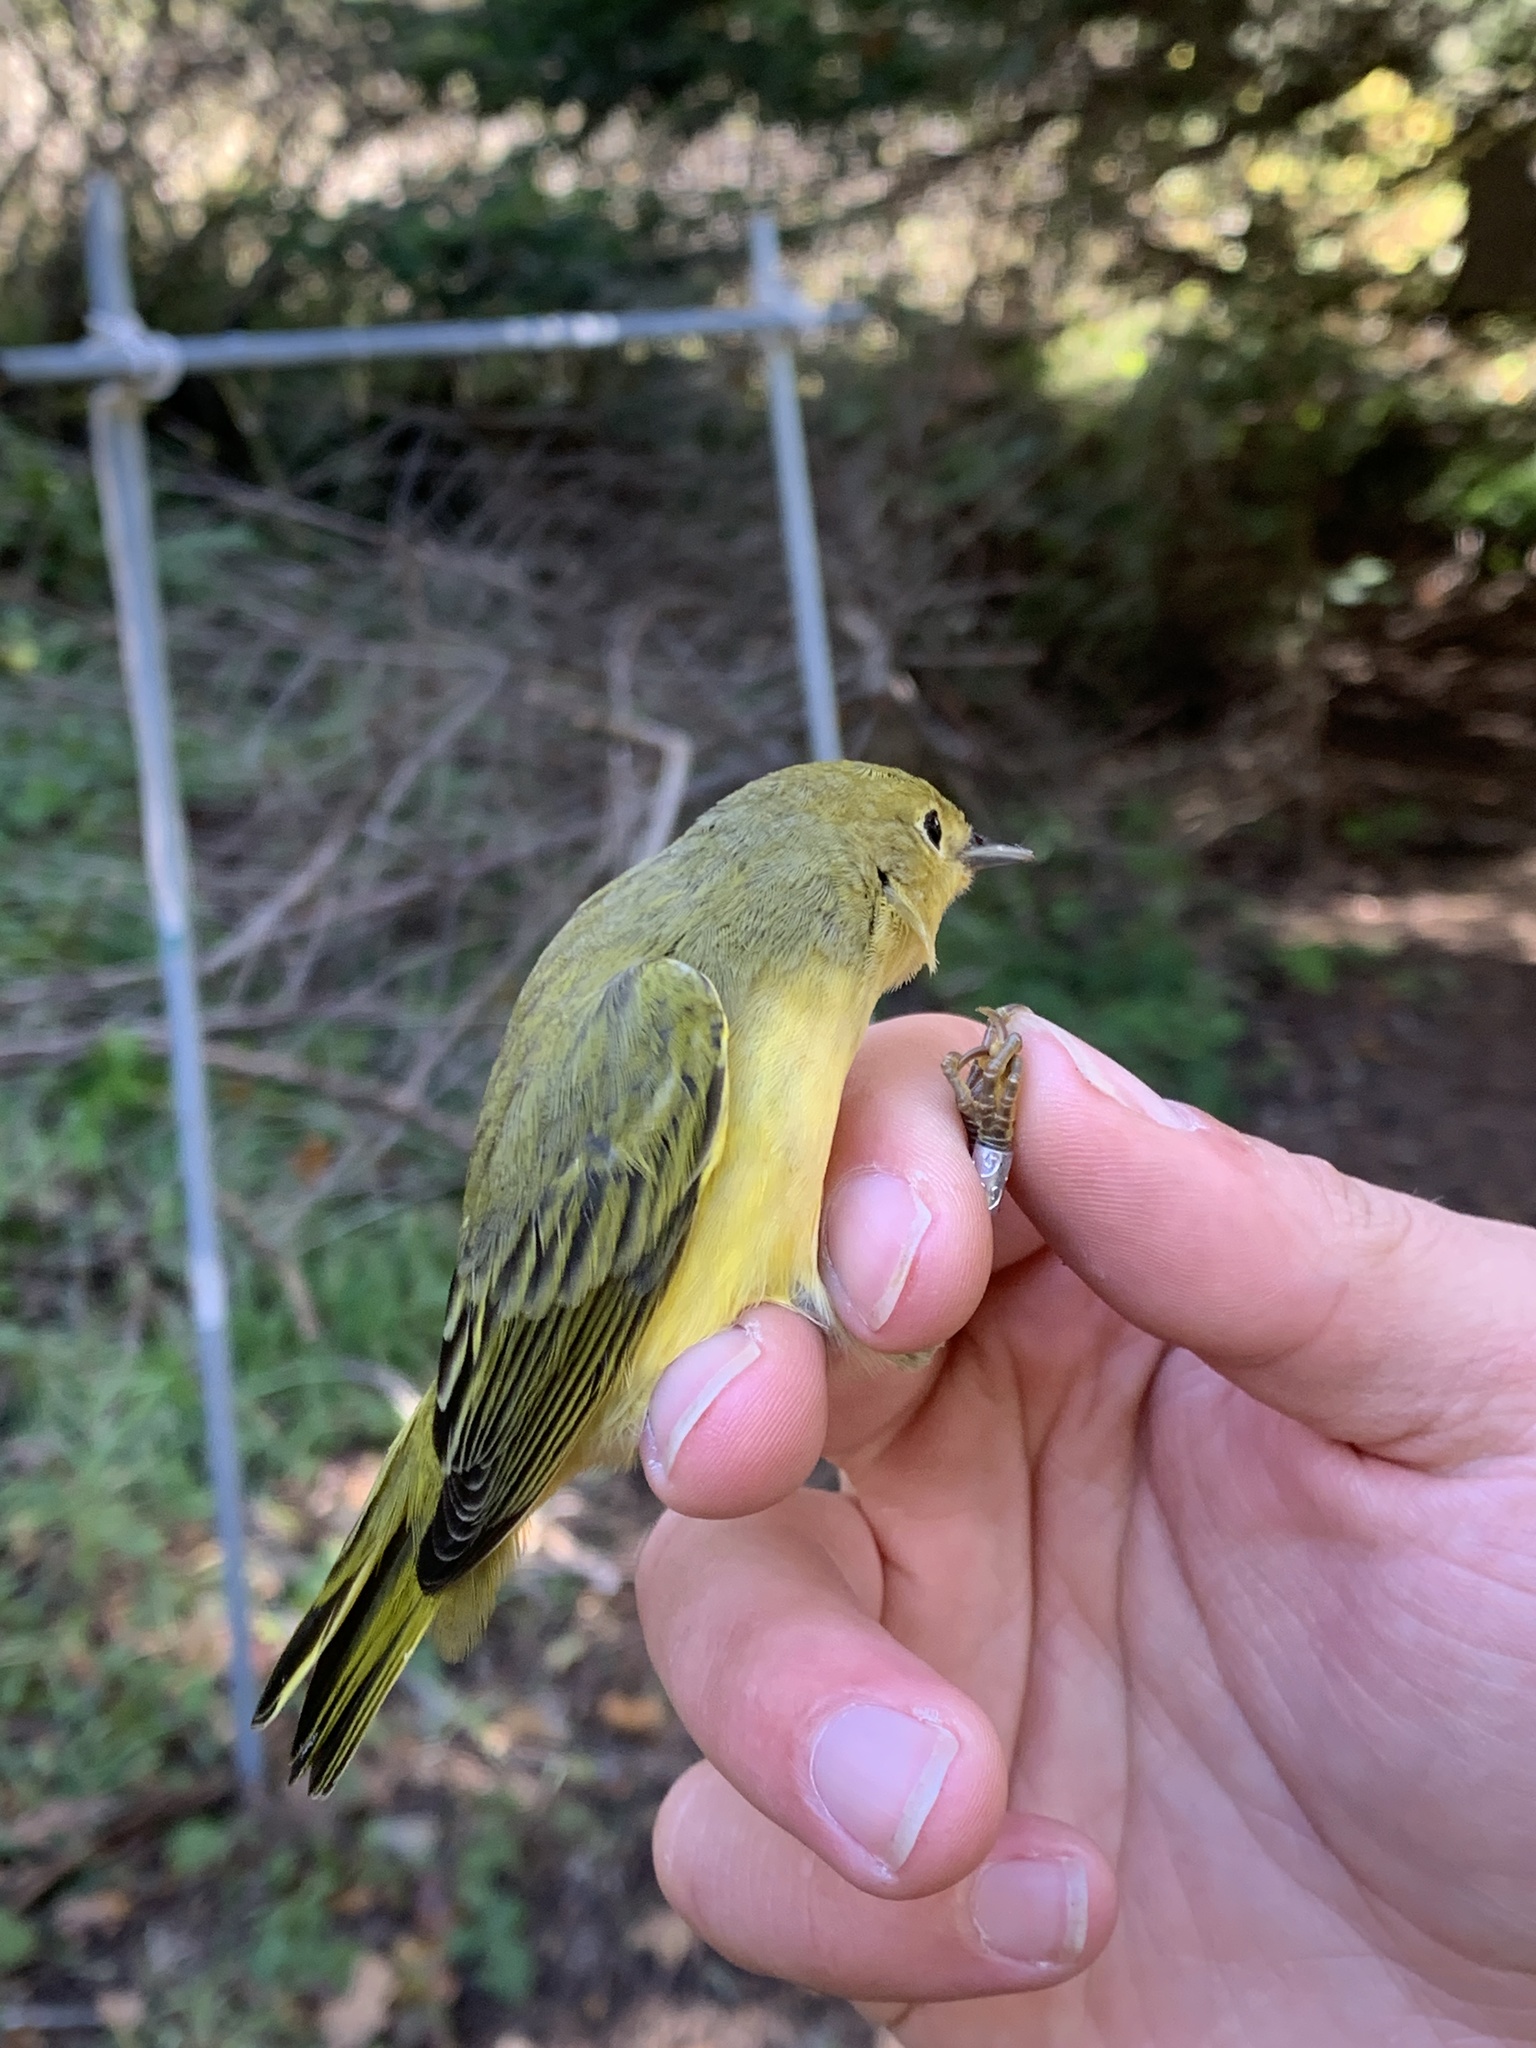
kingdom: Animalia
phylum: Chordata
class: Aves
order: Passeriformes
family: Parulidae
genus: Setophaga
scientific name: Setophaga petechia
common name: Yellow warbler
